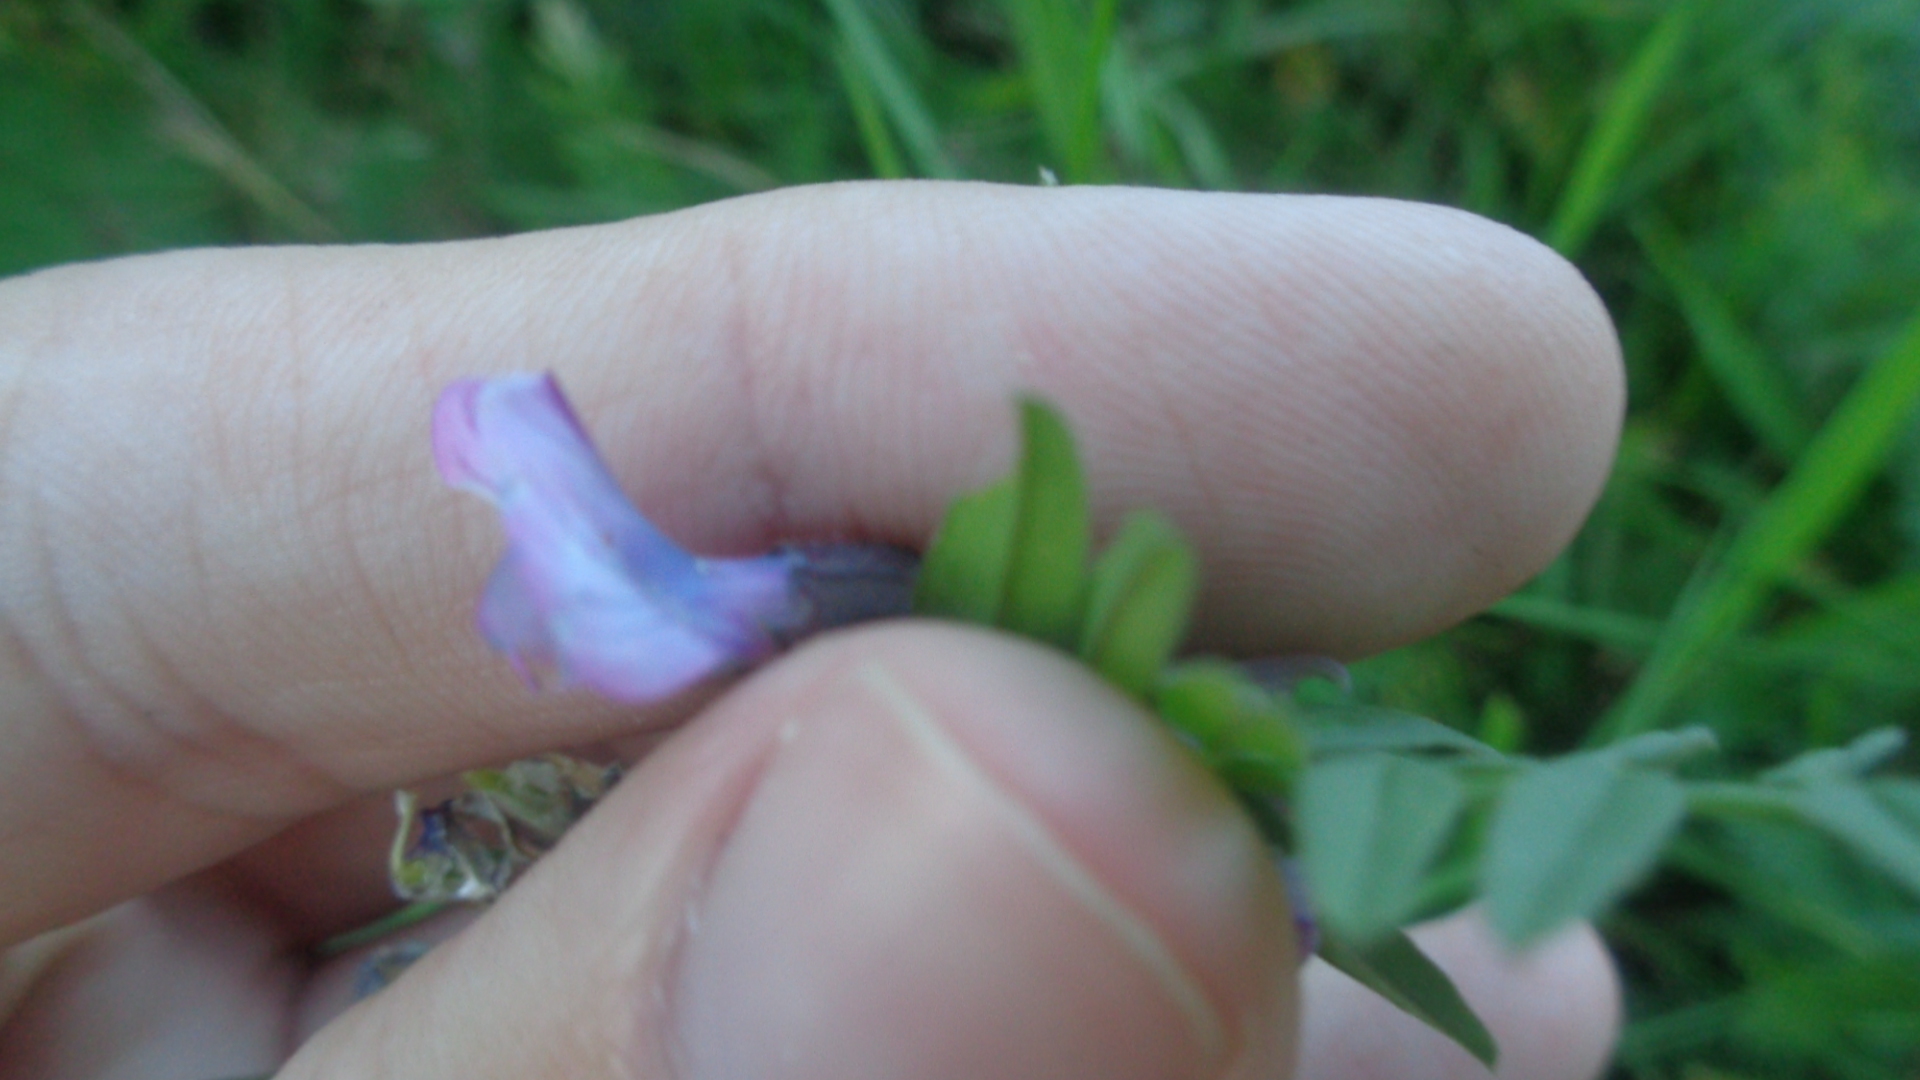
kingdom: Plantae
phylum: Tracheophyta
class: Magnoliopsida
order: Fabales
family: Fabaceae
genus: Vicia
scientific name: Vicia sepium
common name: Bush vetch
